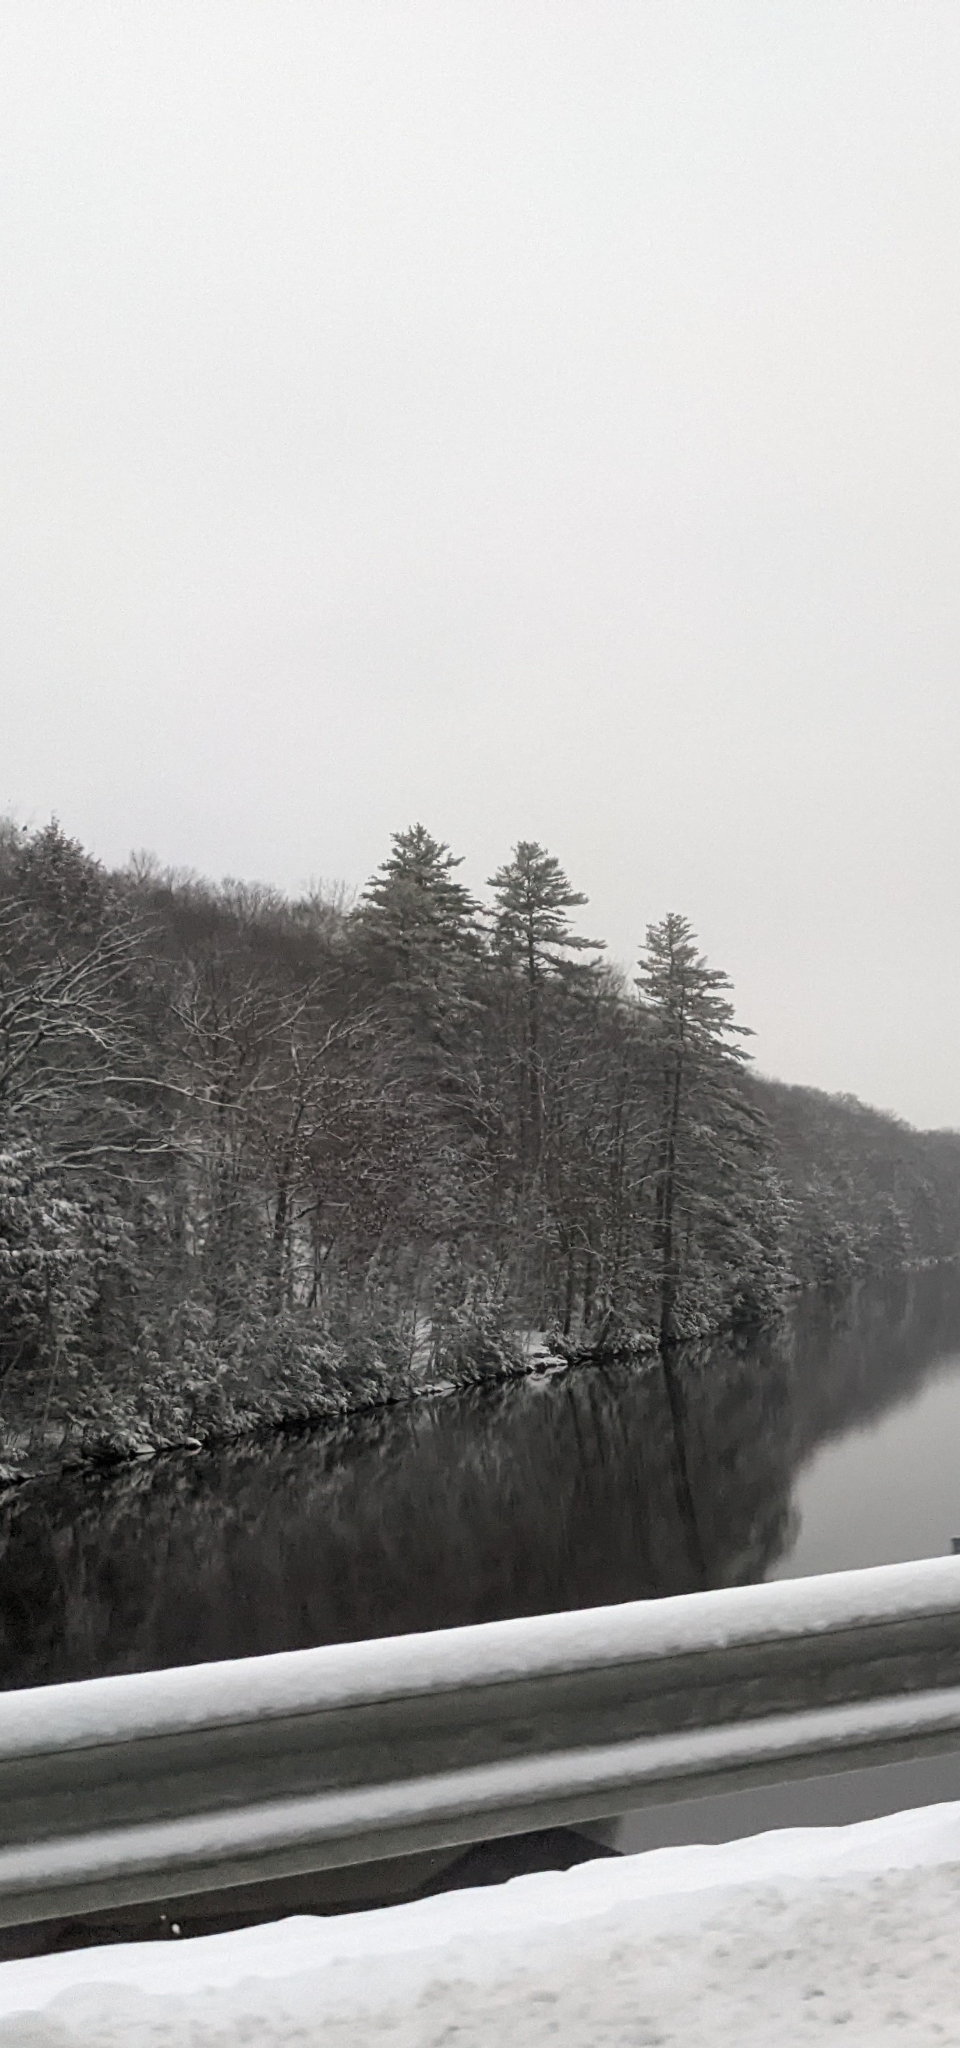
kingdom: Plantae
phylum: Tracheophyta
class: Pinopsida
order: Pinales
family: Pinaceae
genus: Pinus
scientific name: Pinus strobus
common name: Weymouth pine
